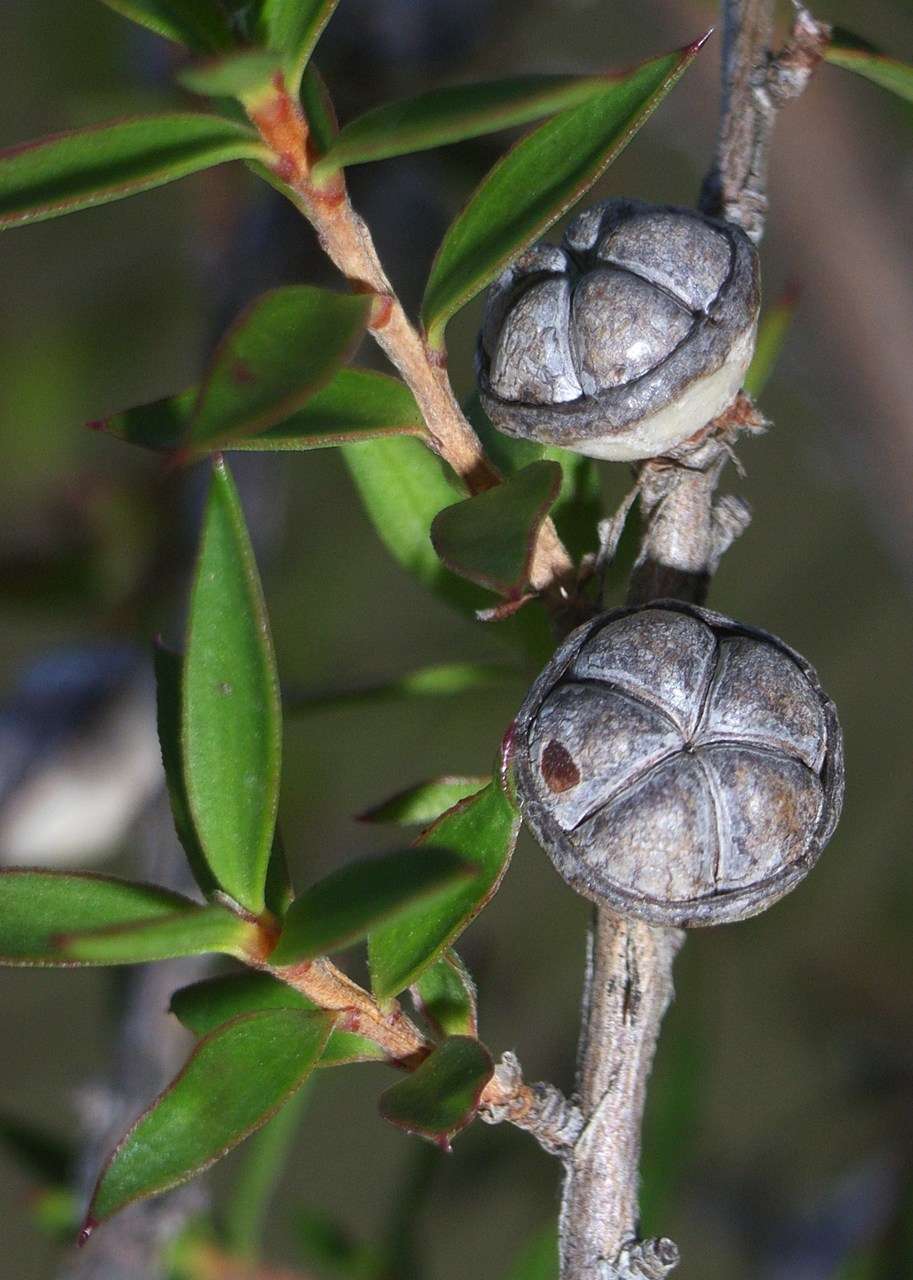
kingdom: Plantae
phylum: Tracheophyta
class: Magnoliopsida
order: Myrtales
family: Myrtaceae
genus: Leptospermum
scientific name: Leptospermum continentale
